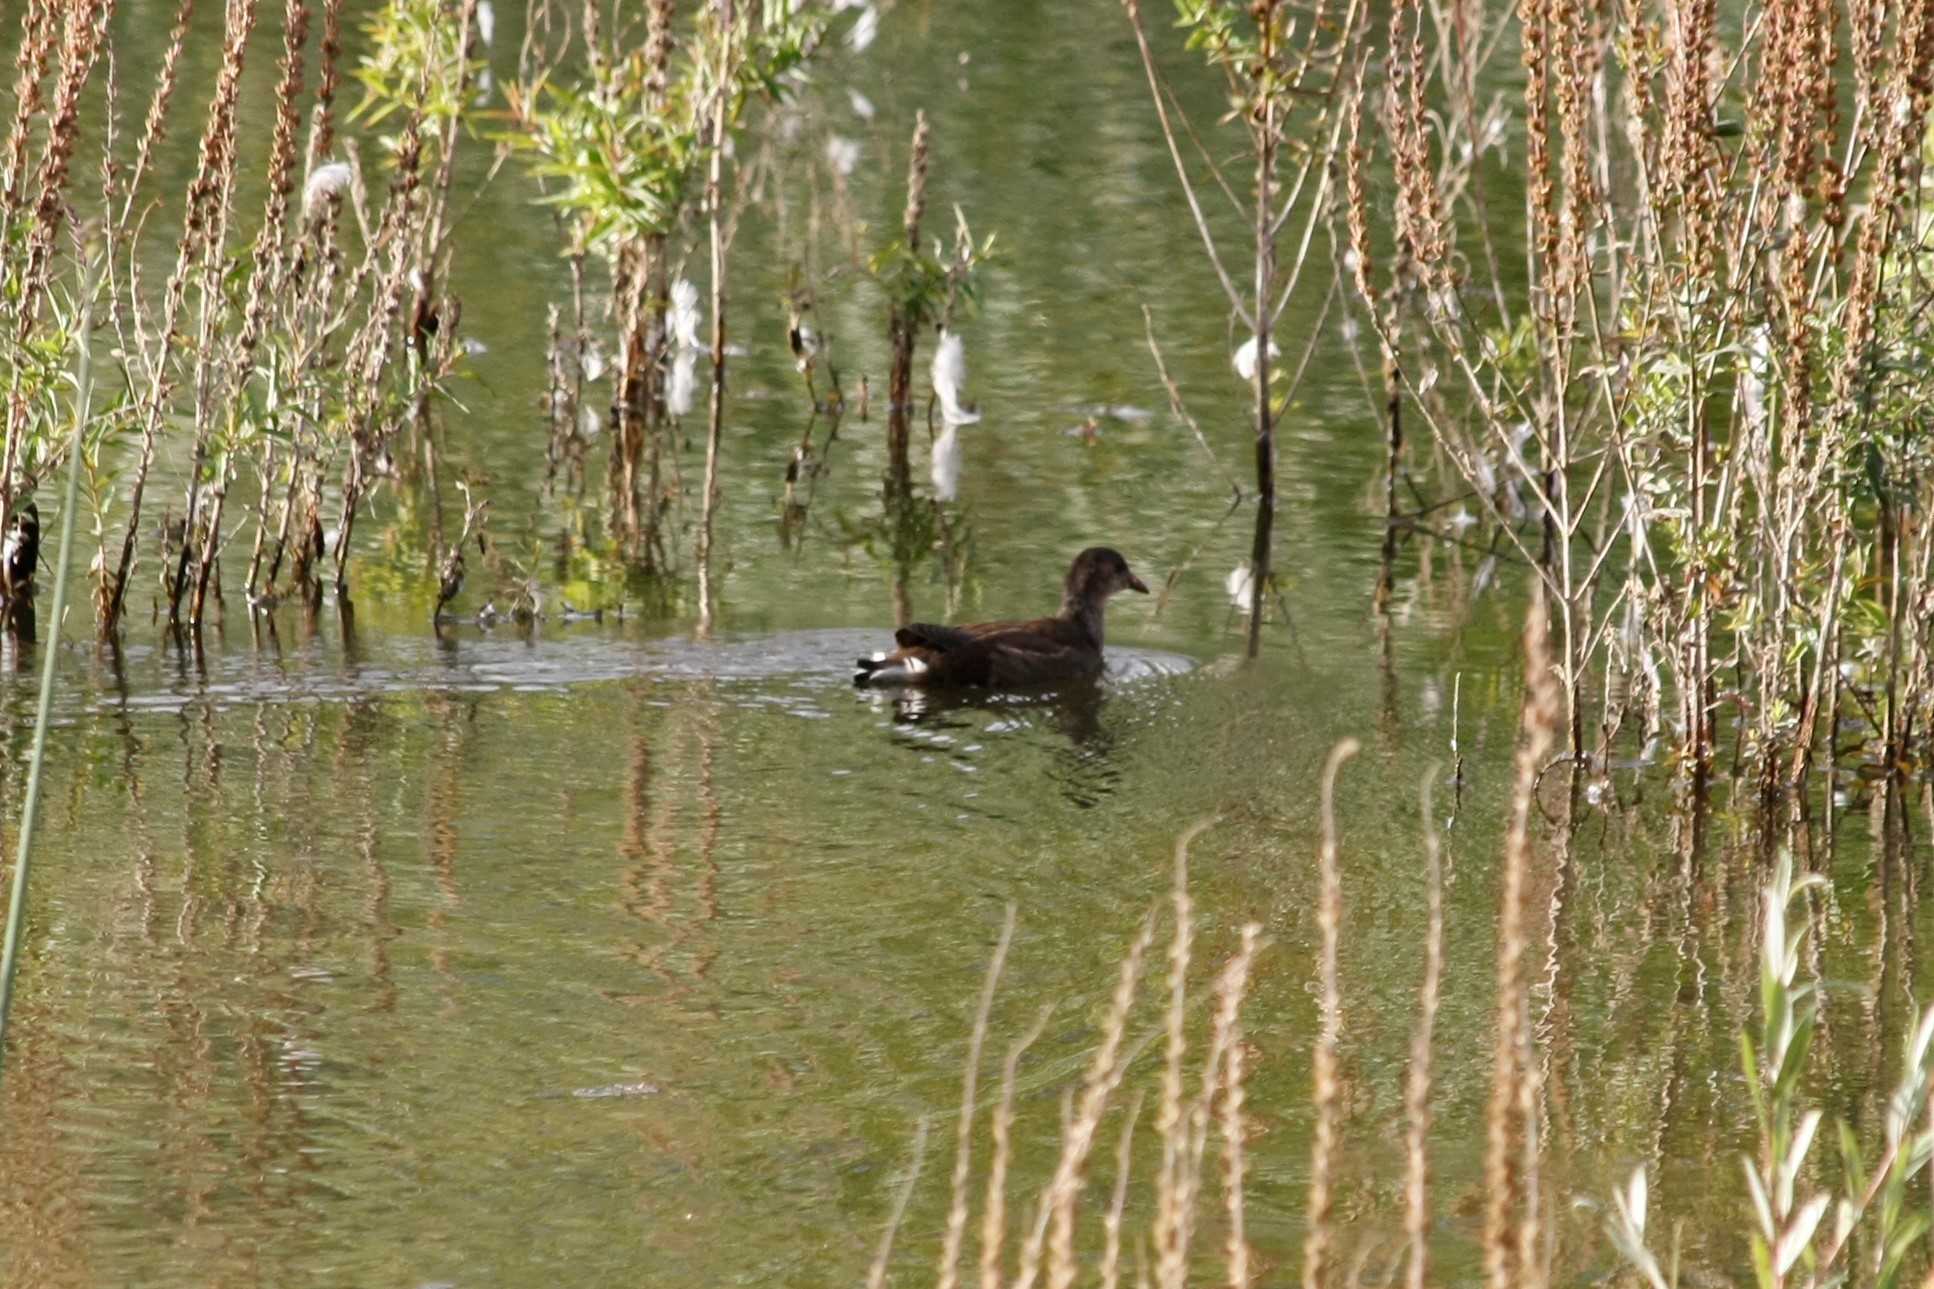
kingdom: Animalia
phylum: Chordata
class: Aves
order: Gruiformes
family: Rallidae
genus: Gallinula
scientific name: Gallinula chloropus
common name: Common moorhen
